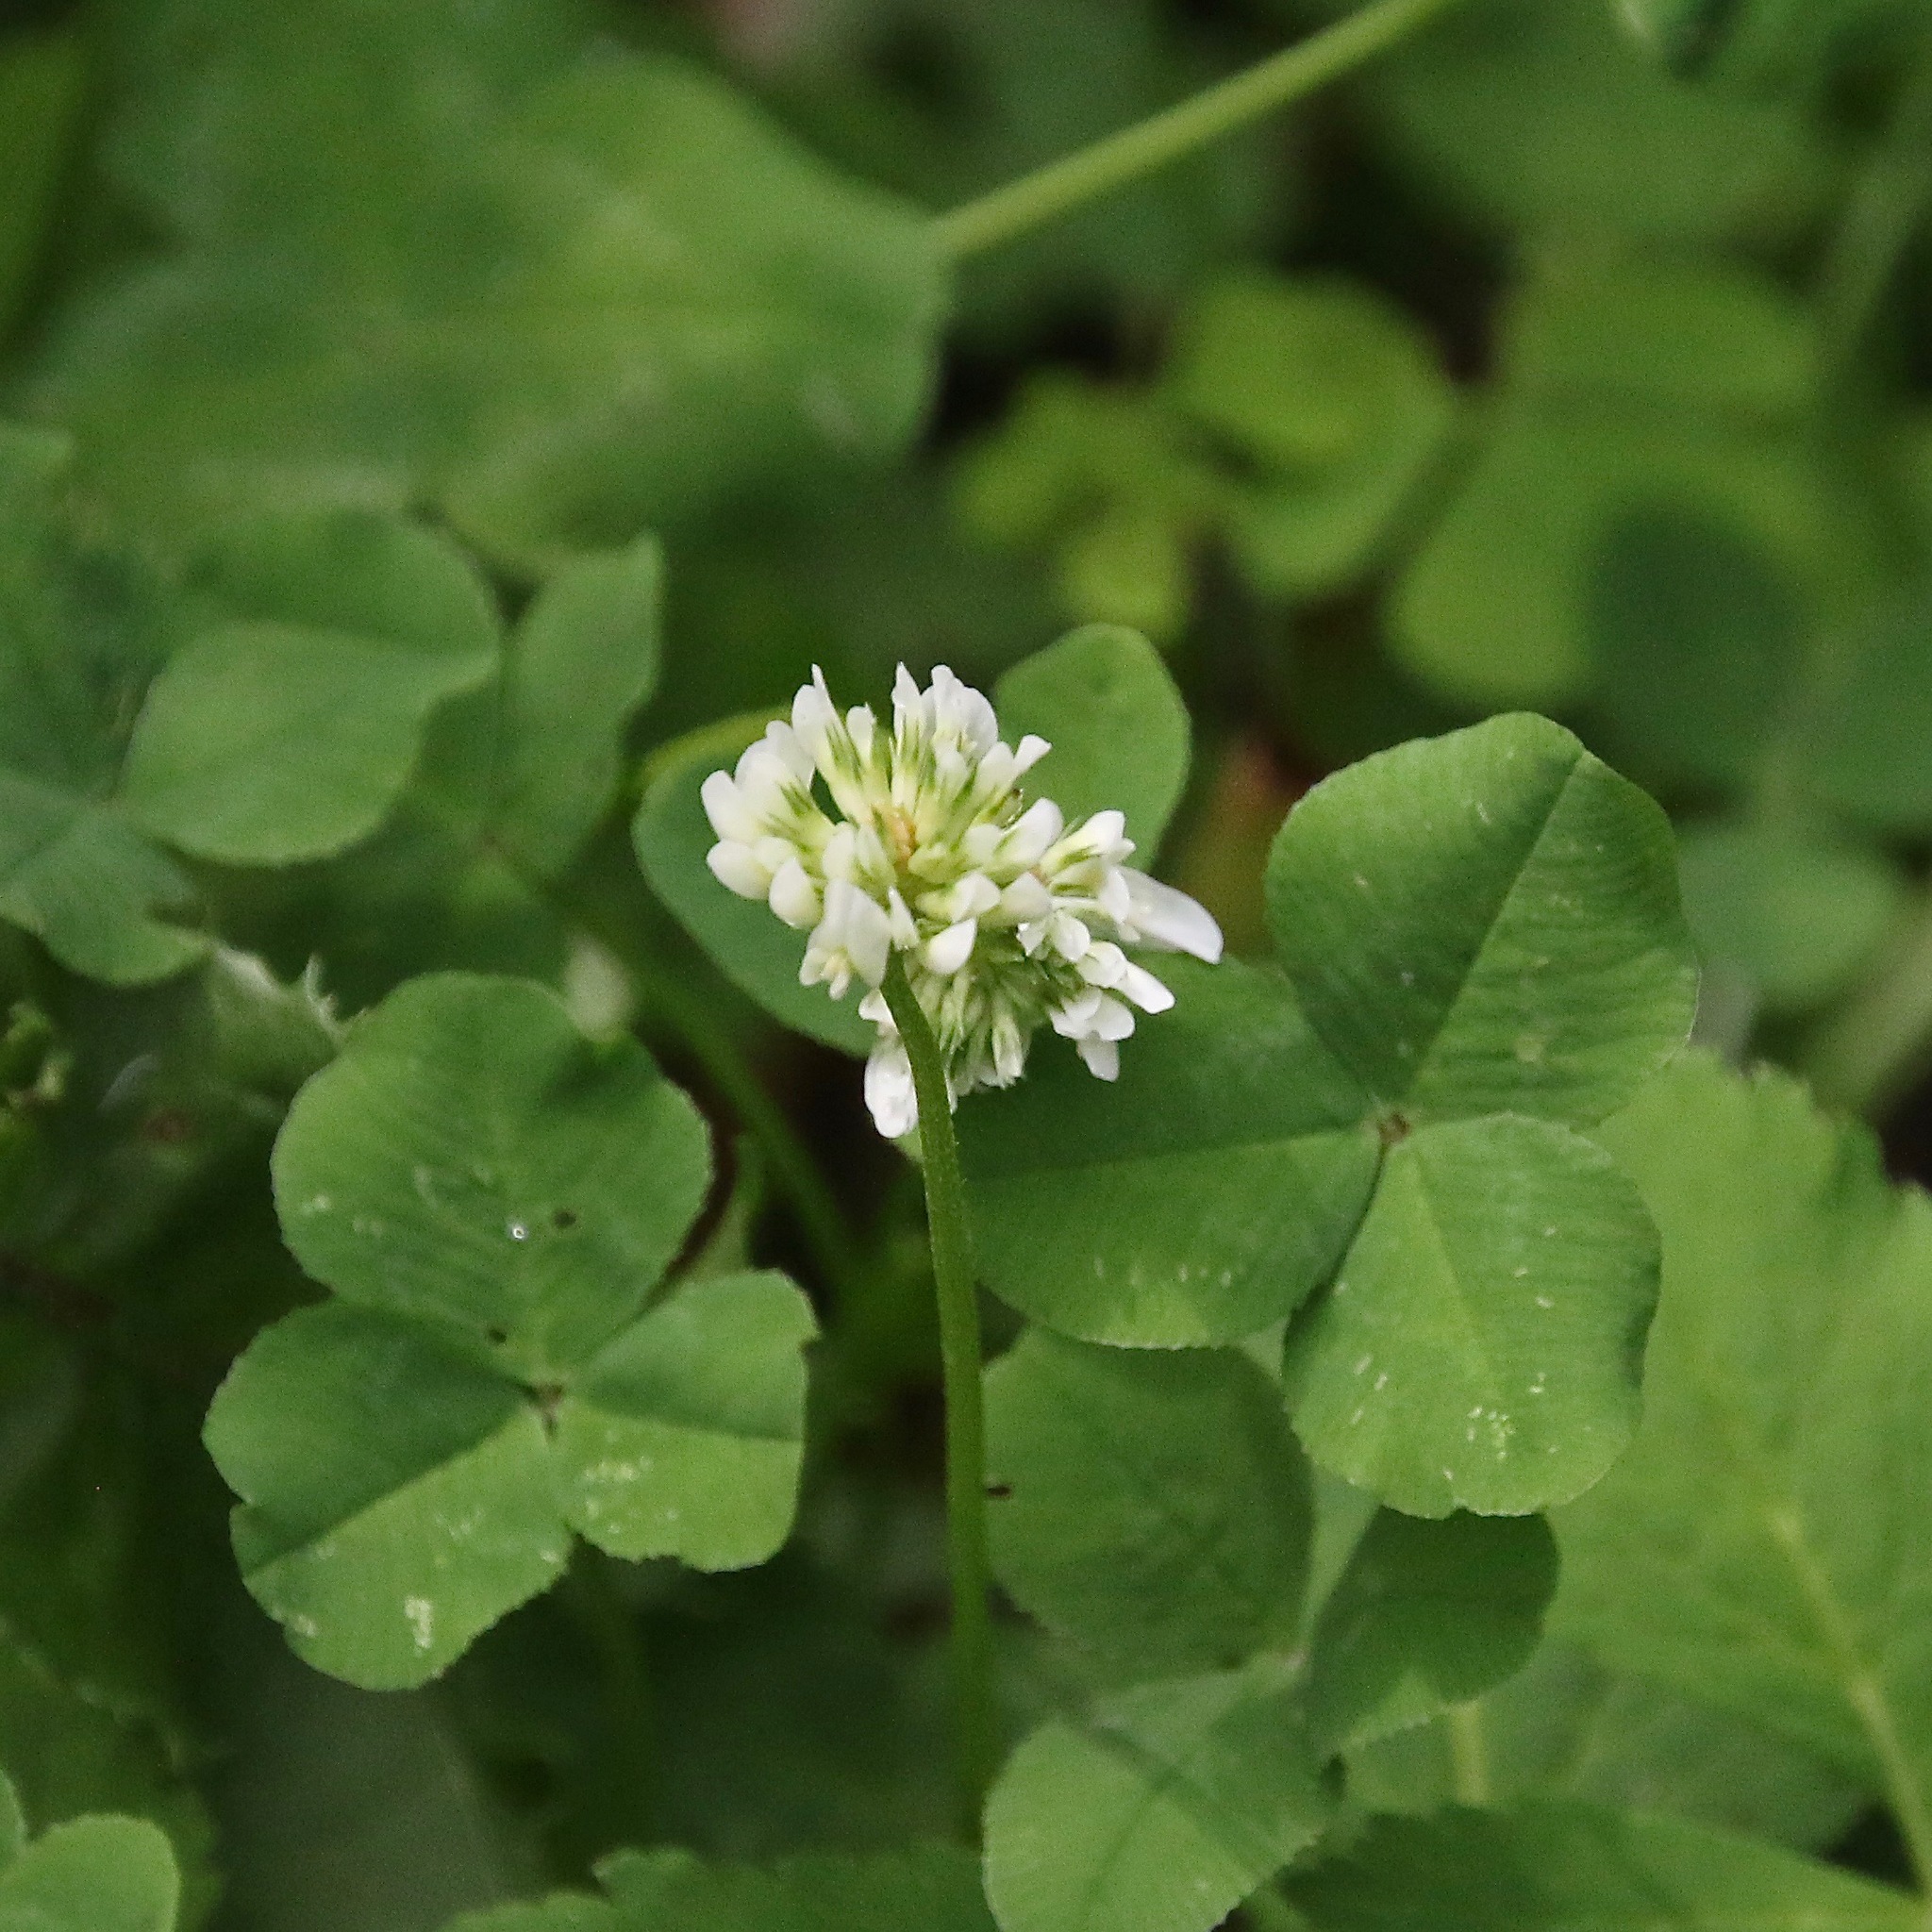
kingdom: Plantae
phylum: Tracheophyta
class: Magnoliopsida
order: Fabales
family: Fabaceae
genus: Trifolium
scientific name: Trifolium repens
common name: White clover
